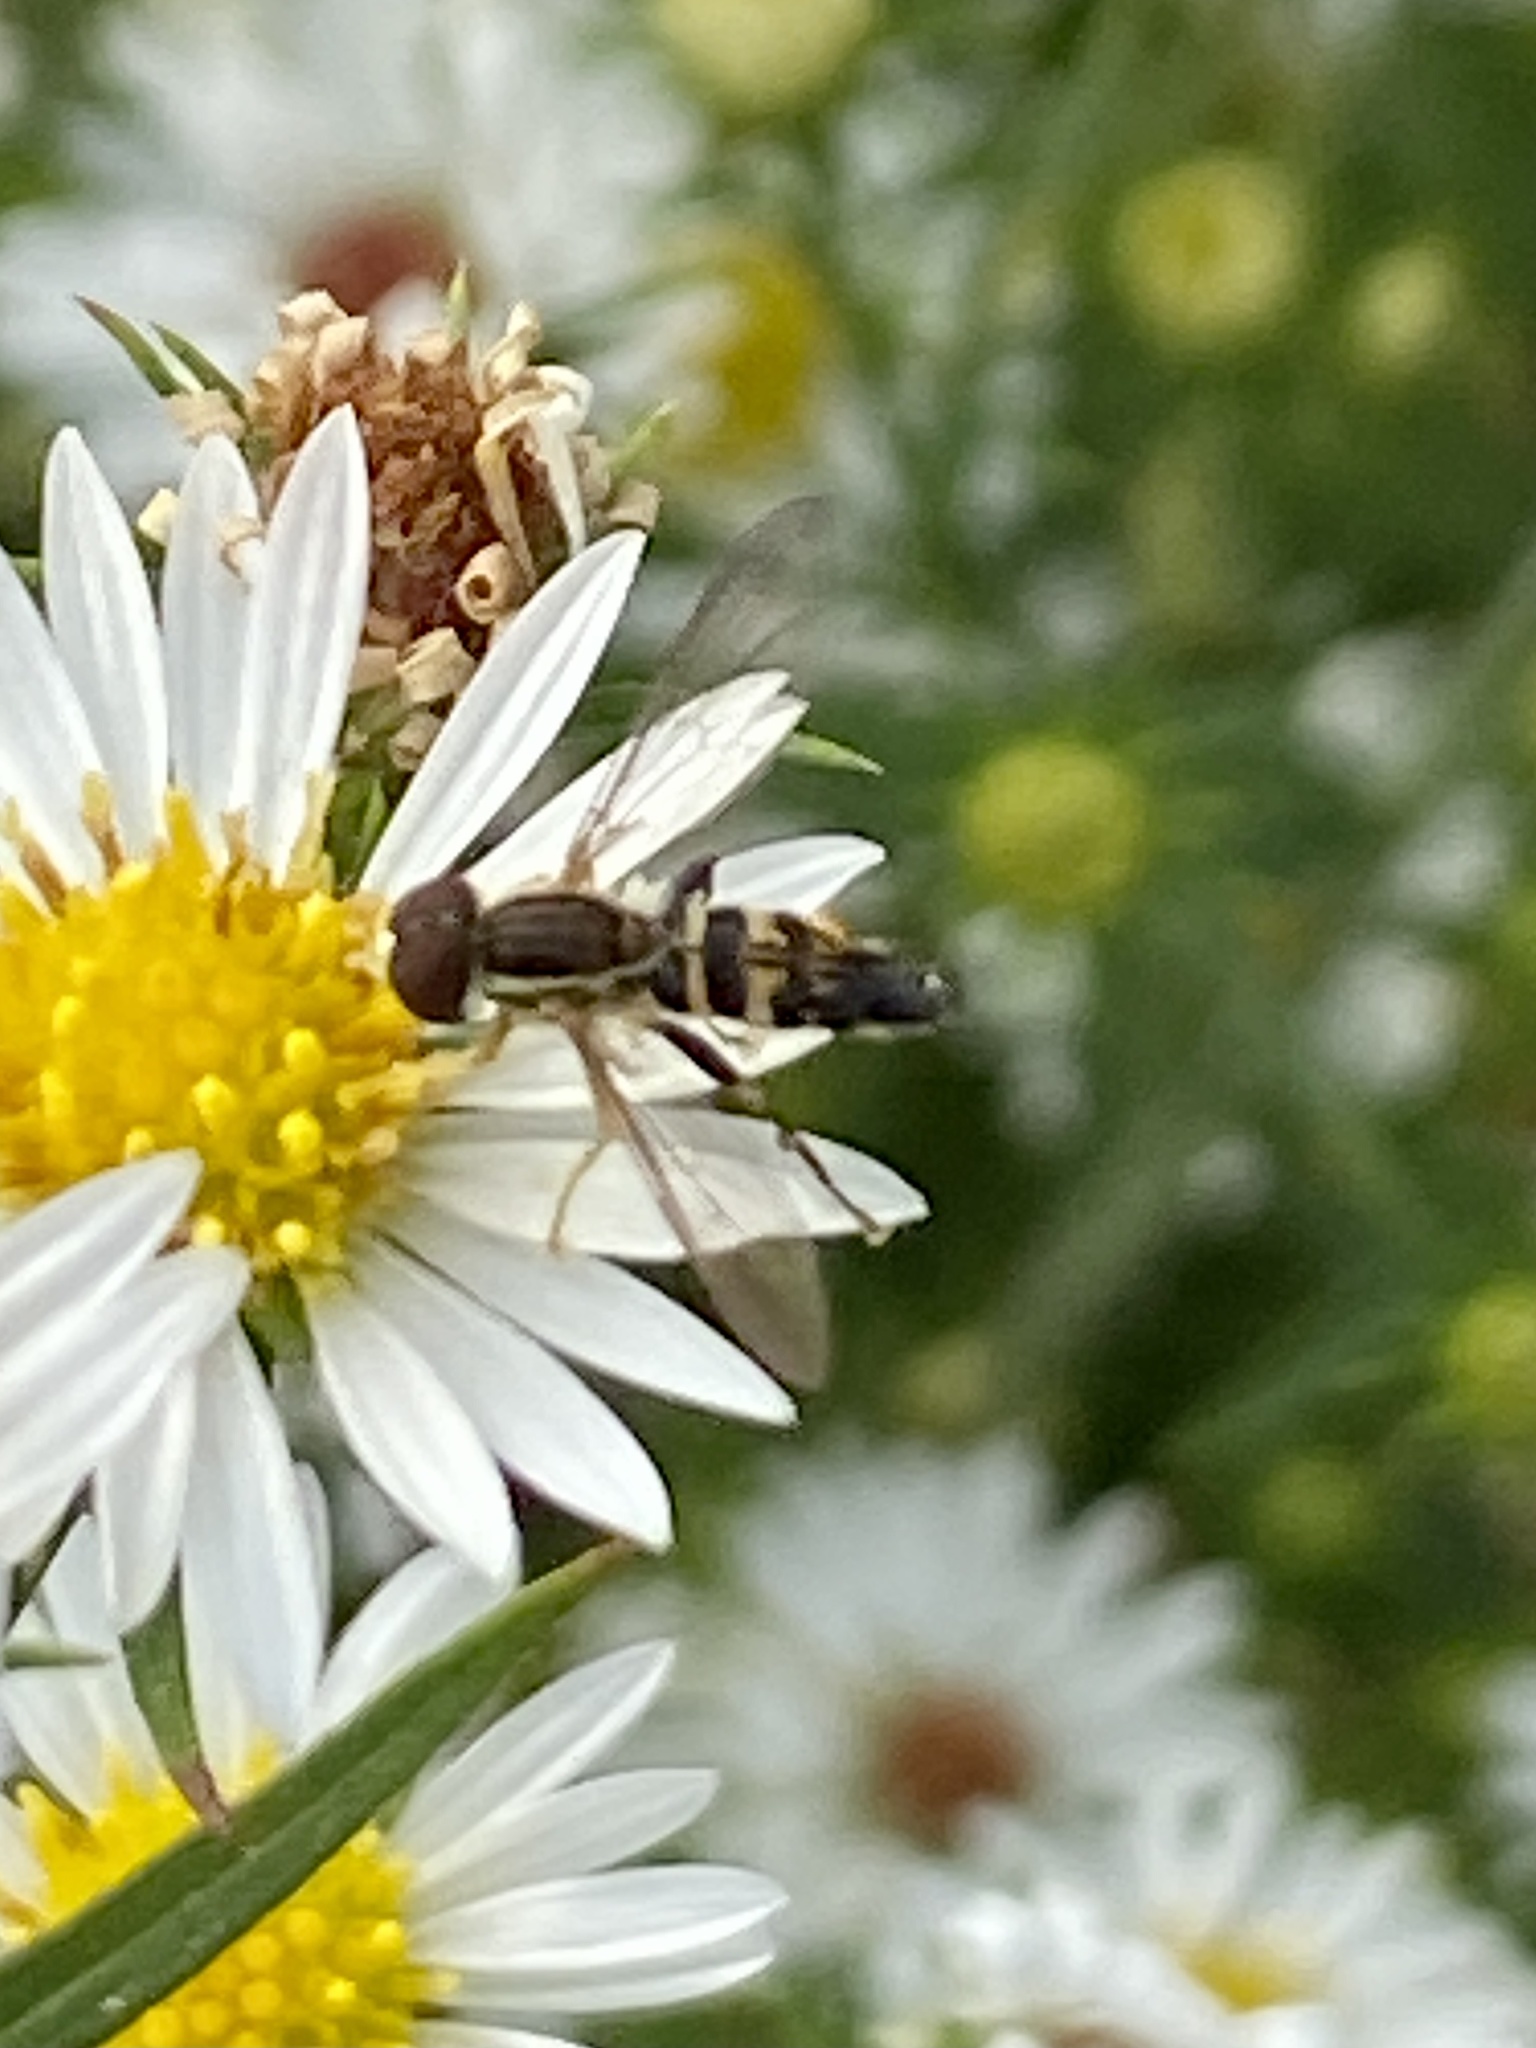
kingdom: Animalia
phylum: Arthropoda
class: Insecta
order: Diptera
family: Syrphidae
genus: Toxomerus
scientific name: Toxomerus geminatus
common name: Eastern calligrapher
